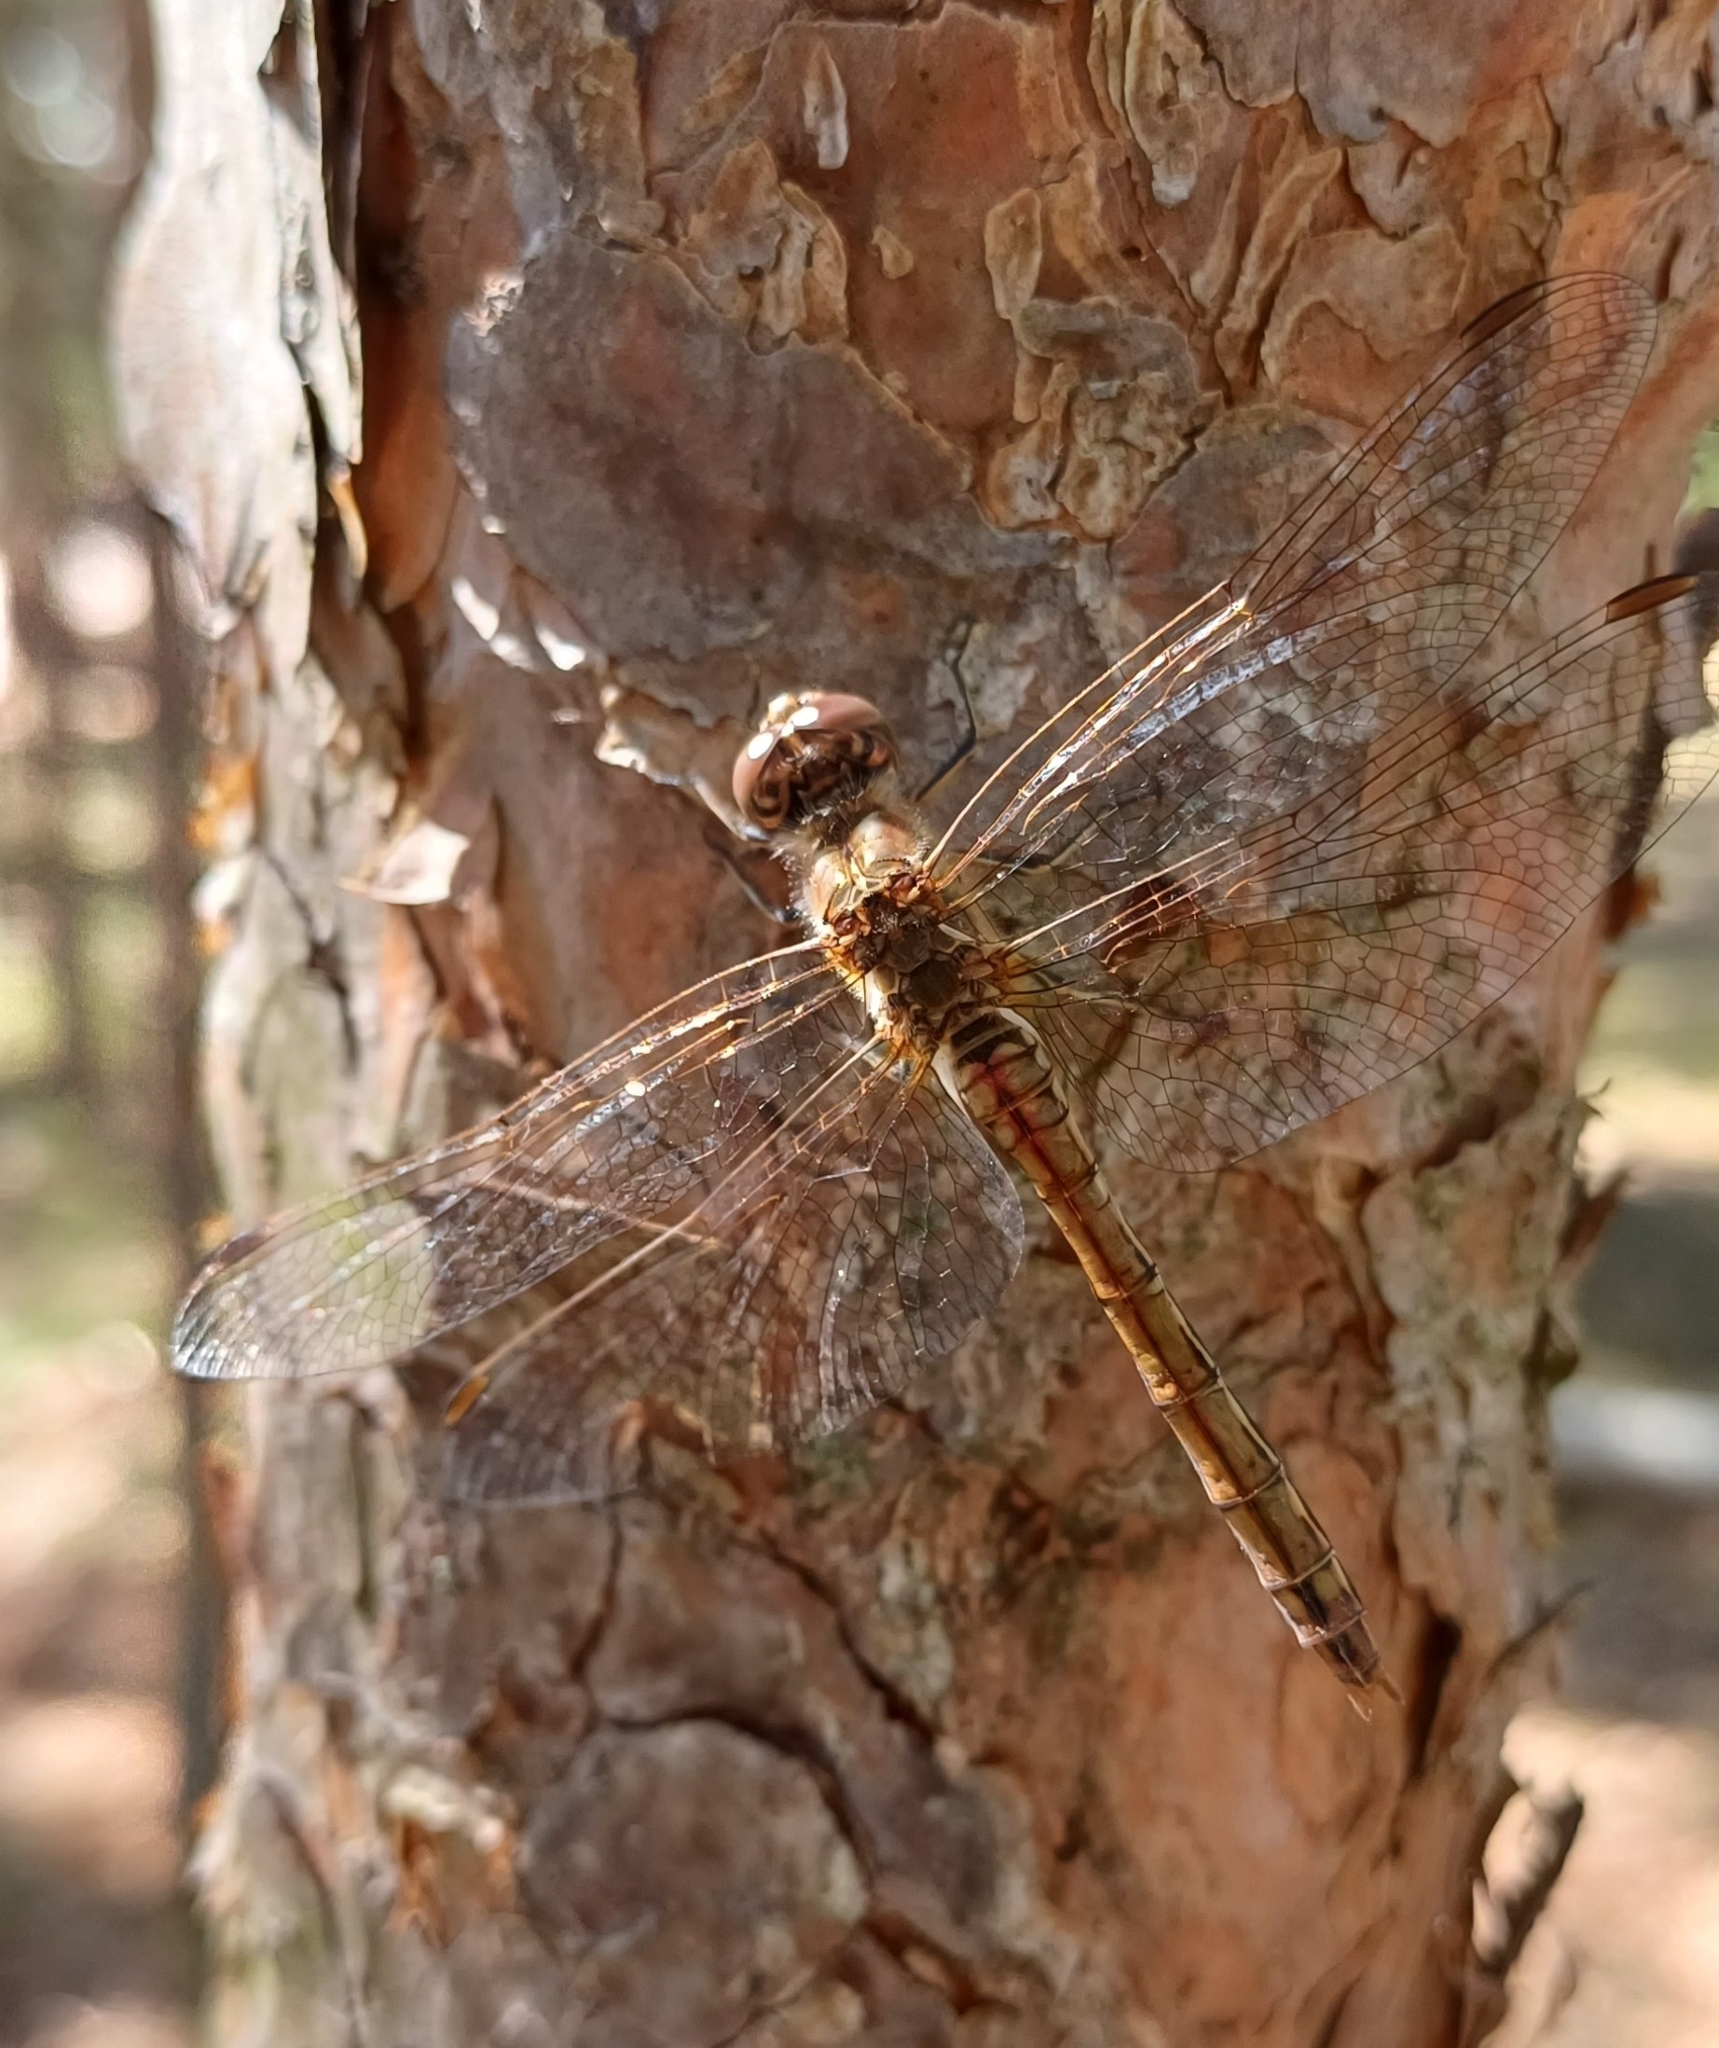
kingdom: Animalia
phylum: Arthropoda
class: Insecta
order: Odonata
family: Libellulidae
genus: Sympetrum
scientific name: Sympetrum vulgatum
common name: Vagrant darter
